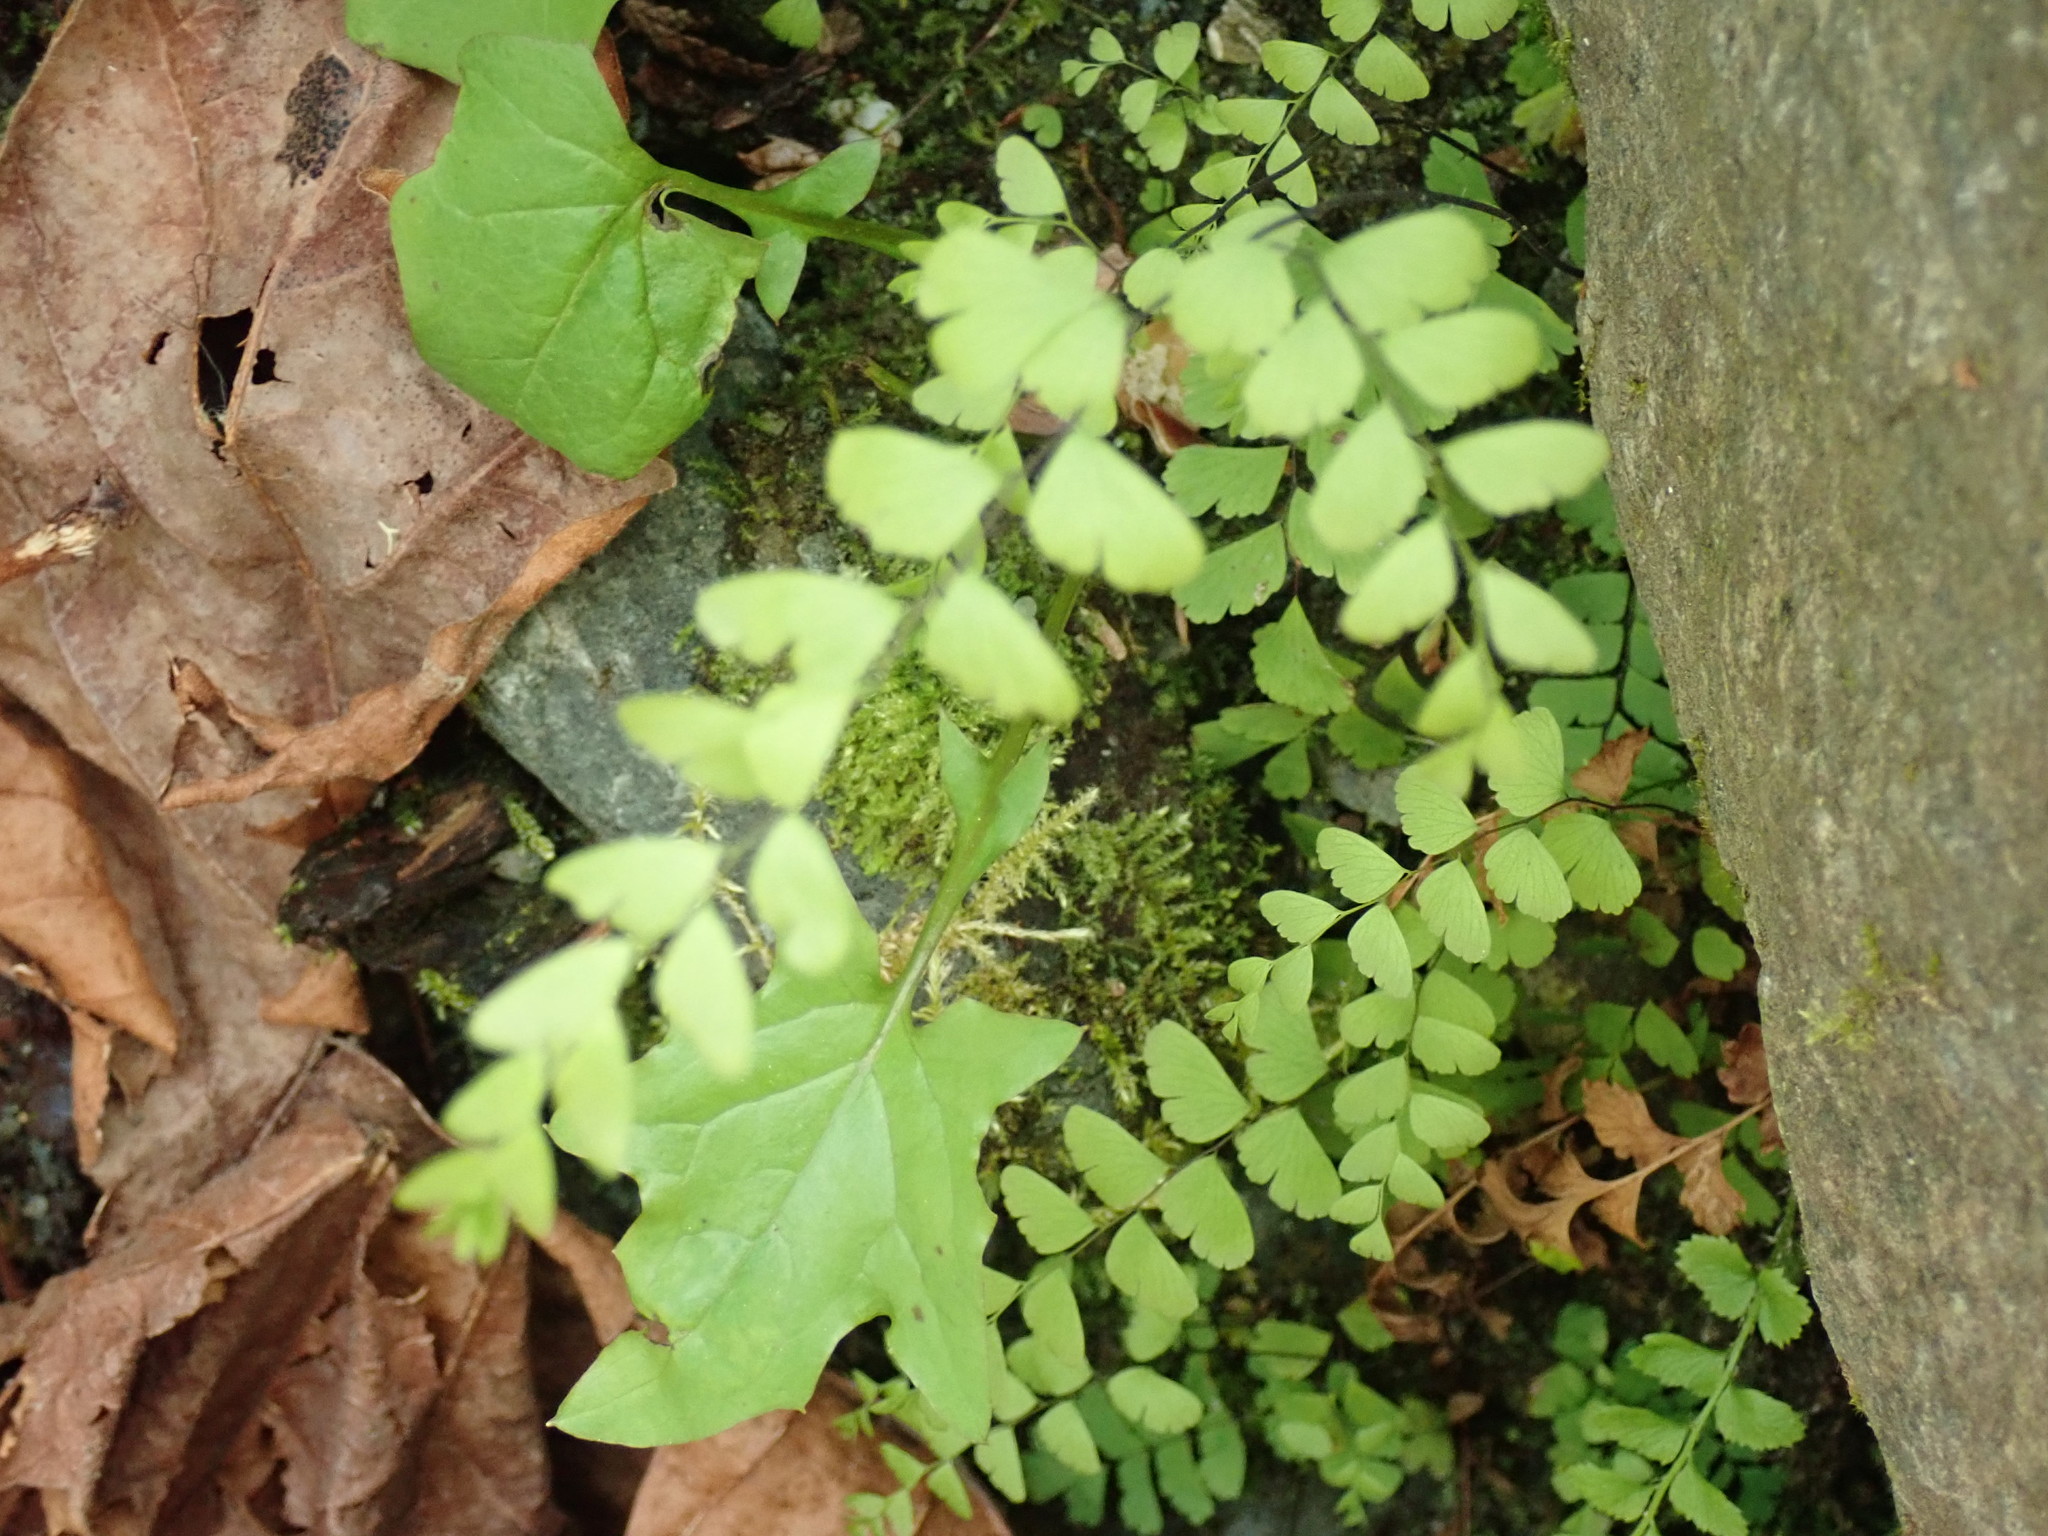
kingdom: Plantae
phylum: Tracheophyta
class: Polypodiopsida
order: Polypodiales
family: Pteridaceae
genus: Adiantum
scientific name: Adiantum aleuticum
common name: Aleutian maidenhair fern
